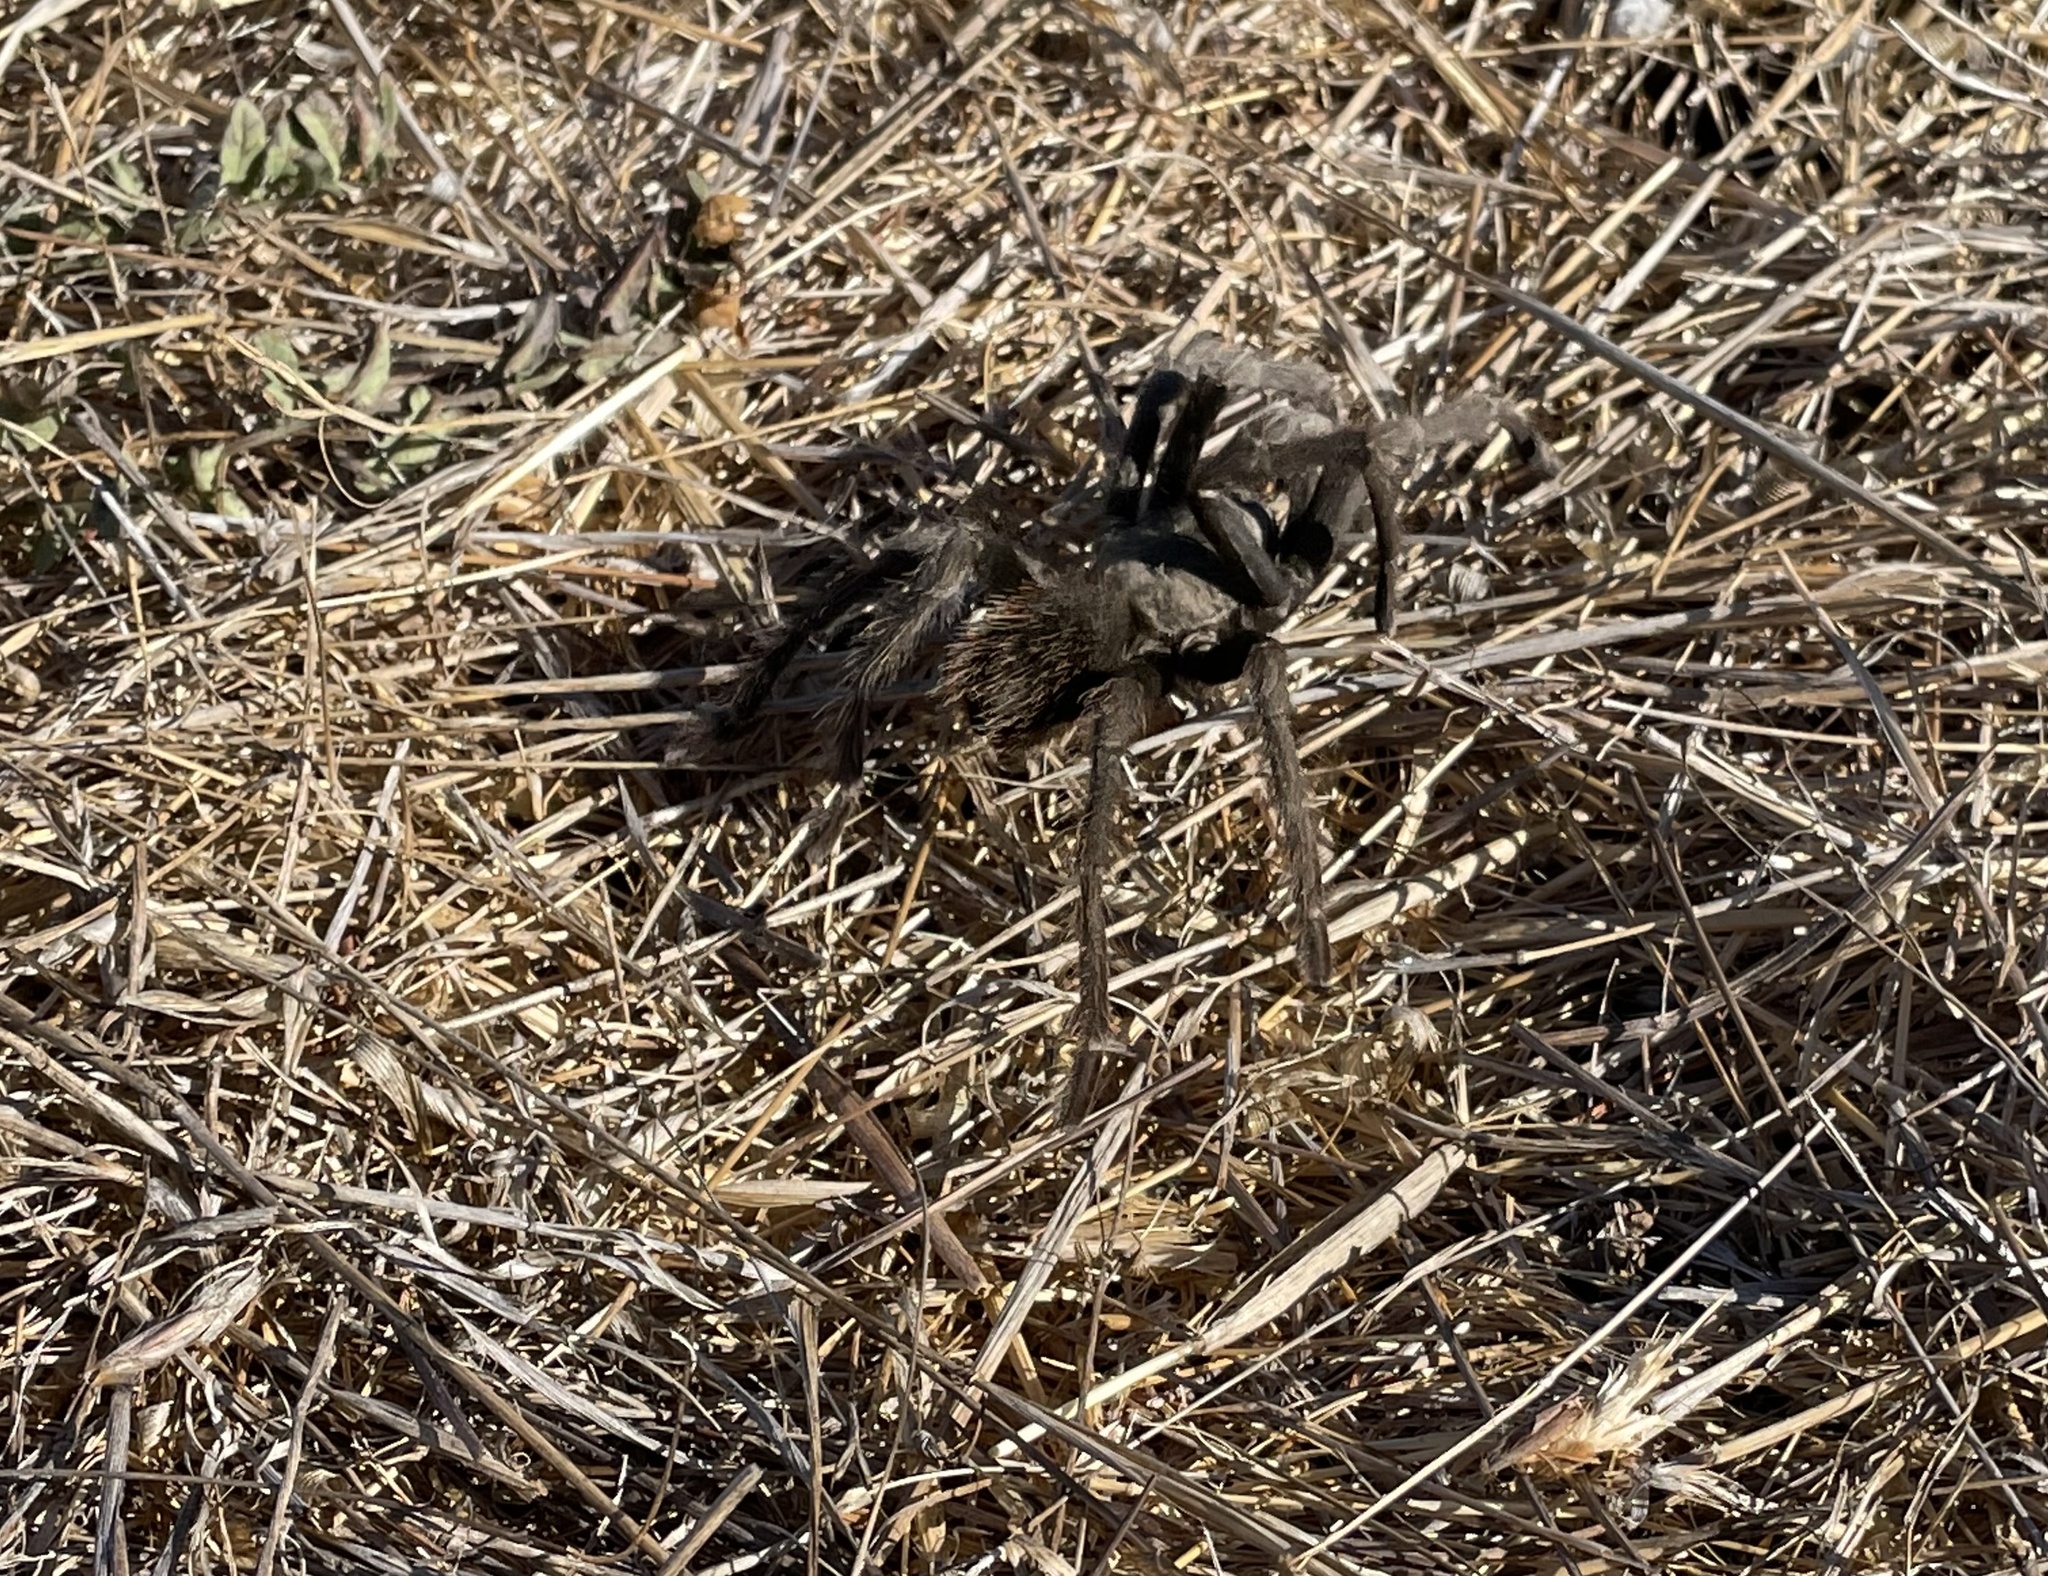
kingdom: Animalia
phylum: Arthropoda
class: Arachnida
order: Araneae
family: Theraphosidae
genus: Aphonopelma
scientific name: Aphonopelma iodius
